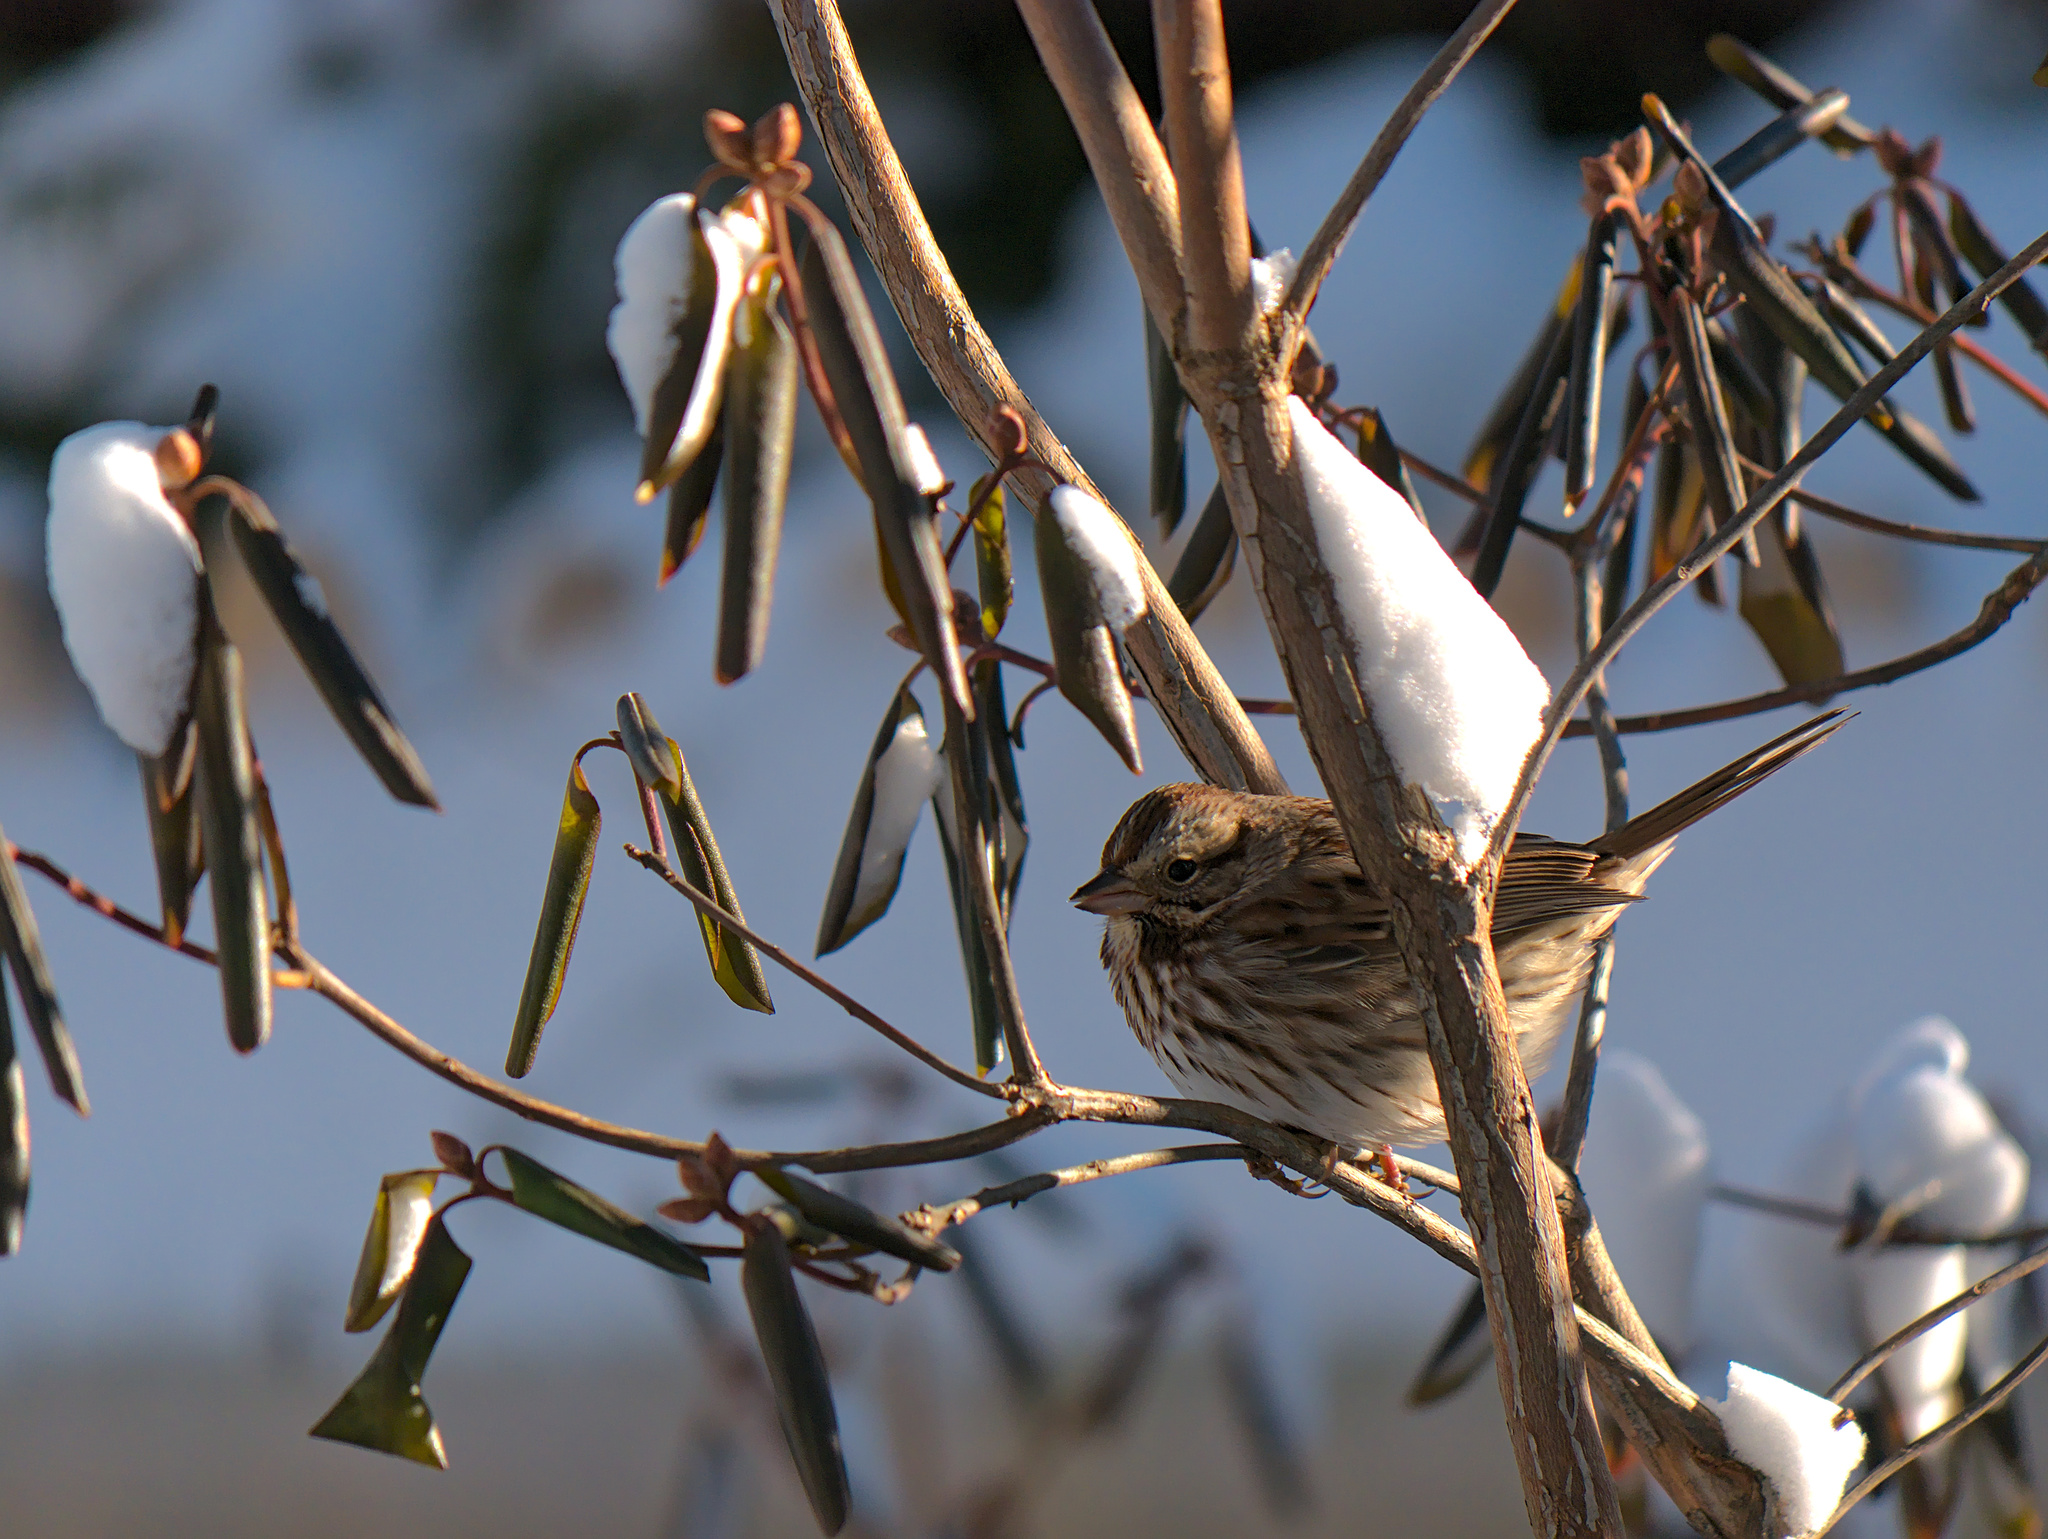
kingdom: Animalia
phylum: Chordata
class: Aves
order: Passeriformes
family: Passerellidae
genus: Melospiza
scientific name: Melospiza melodia
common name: Song sparrow
